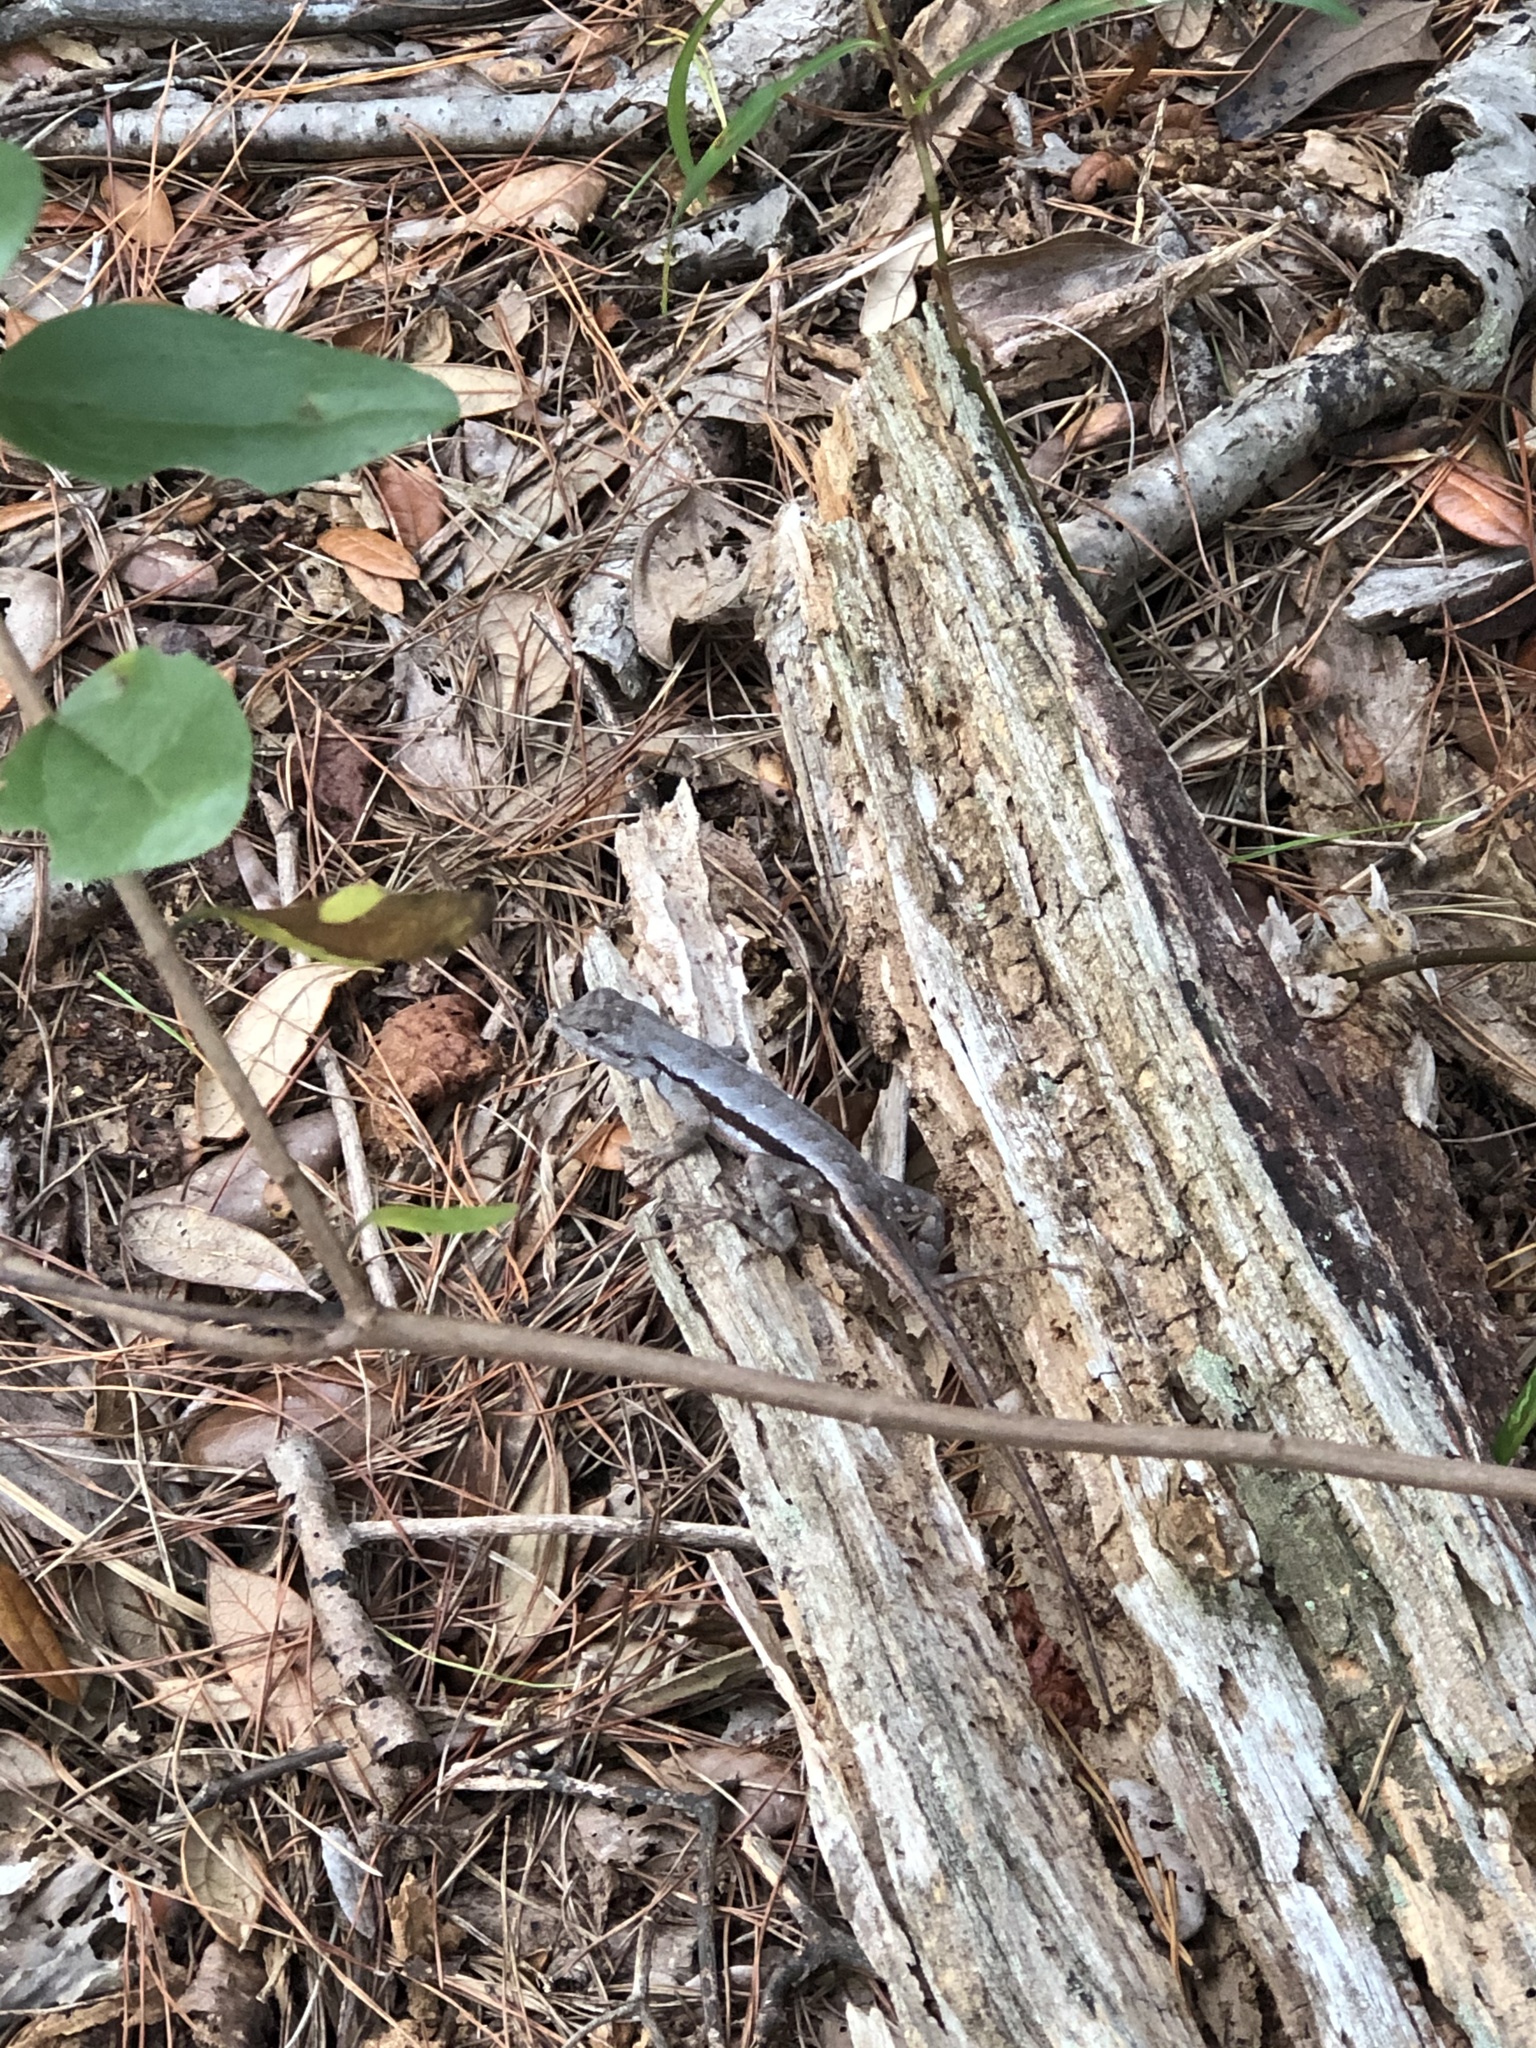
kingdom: Animalia
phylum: Chordata
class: Squamata
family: Phrynosomatidae
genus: Sceloporus
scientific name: Sceloporus woodi
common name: Florida scrub lizard
